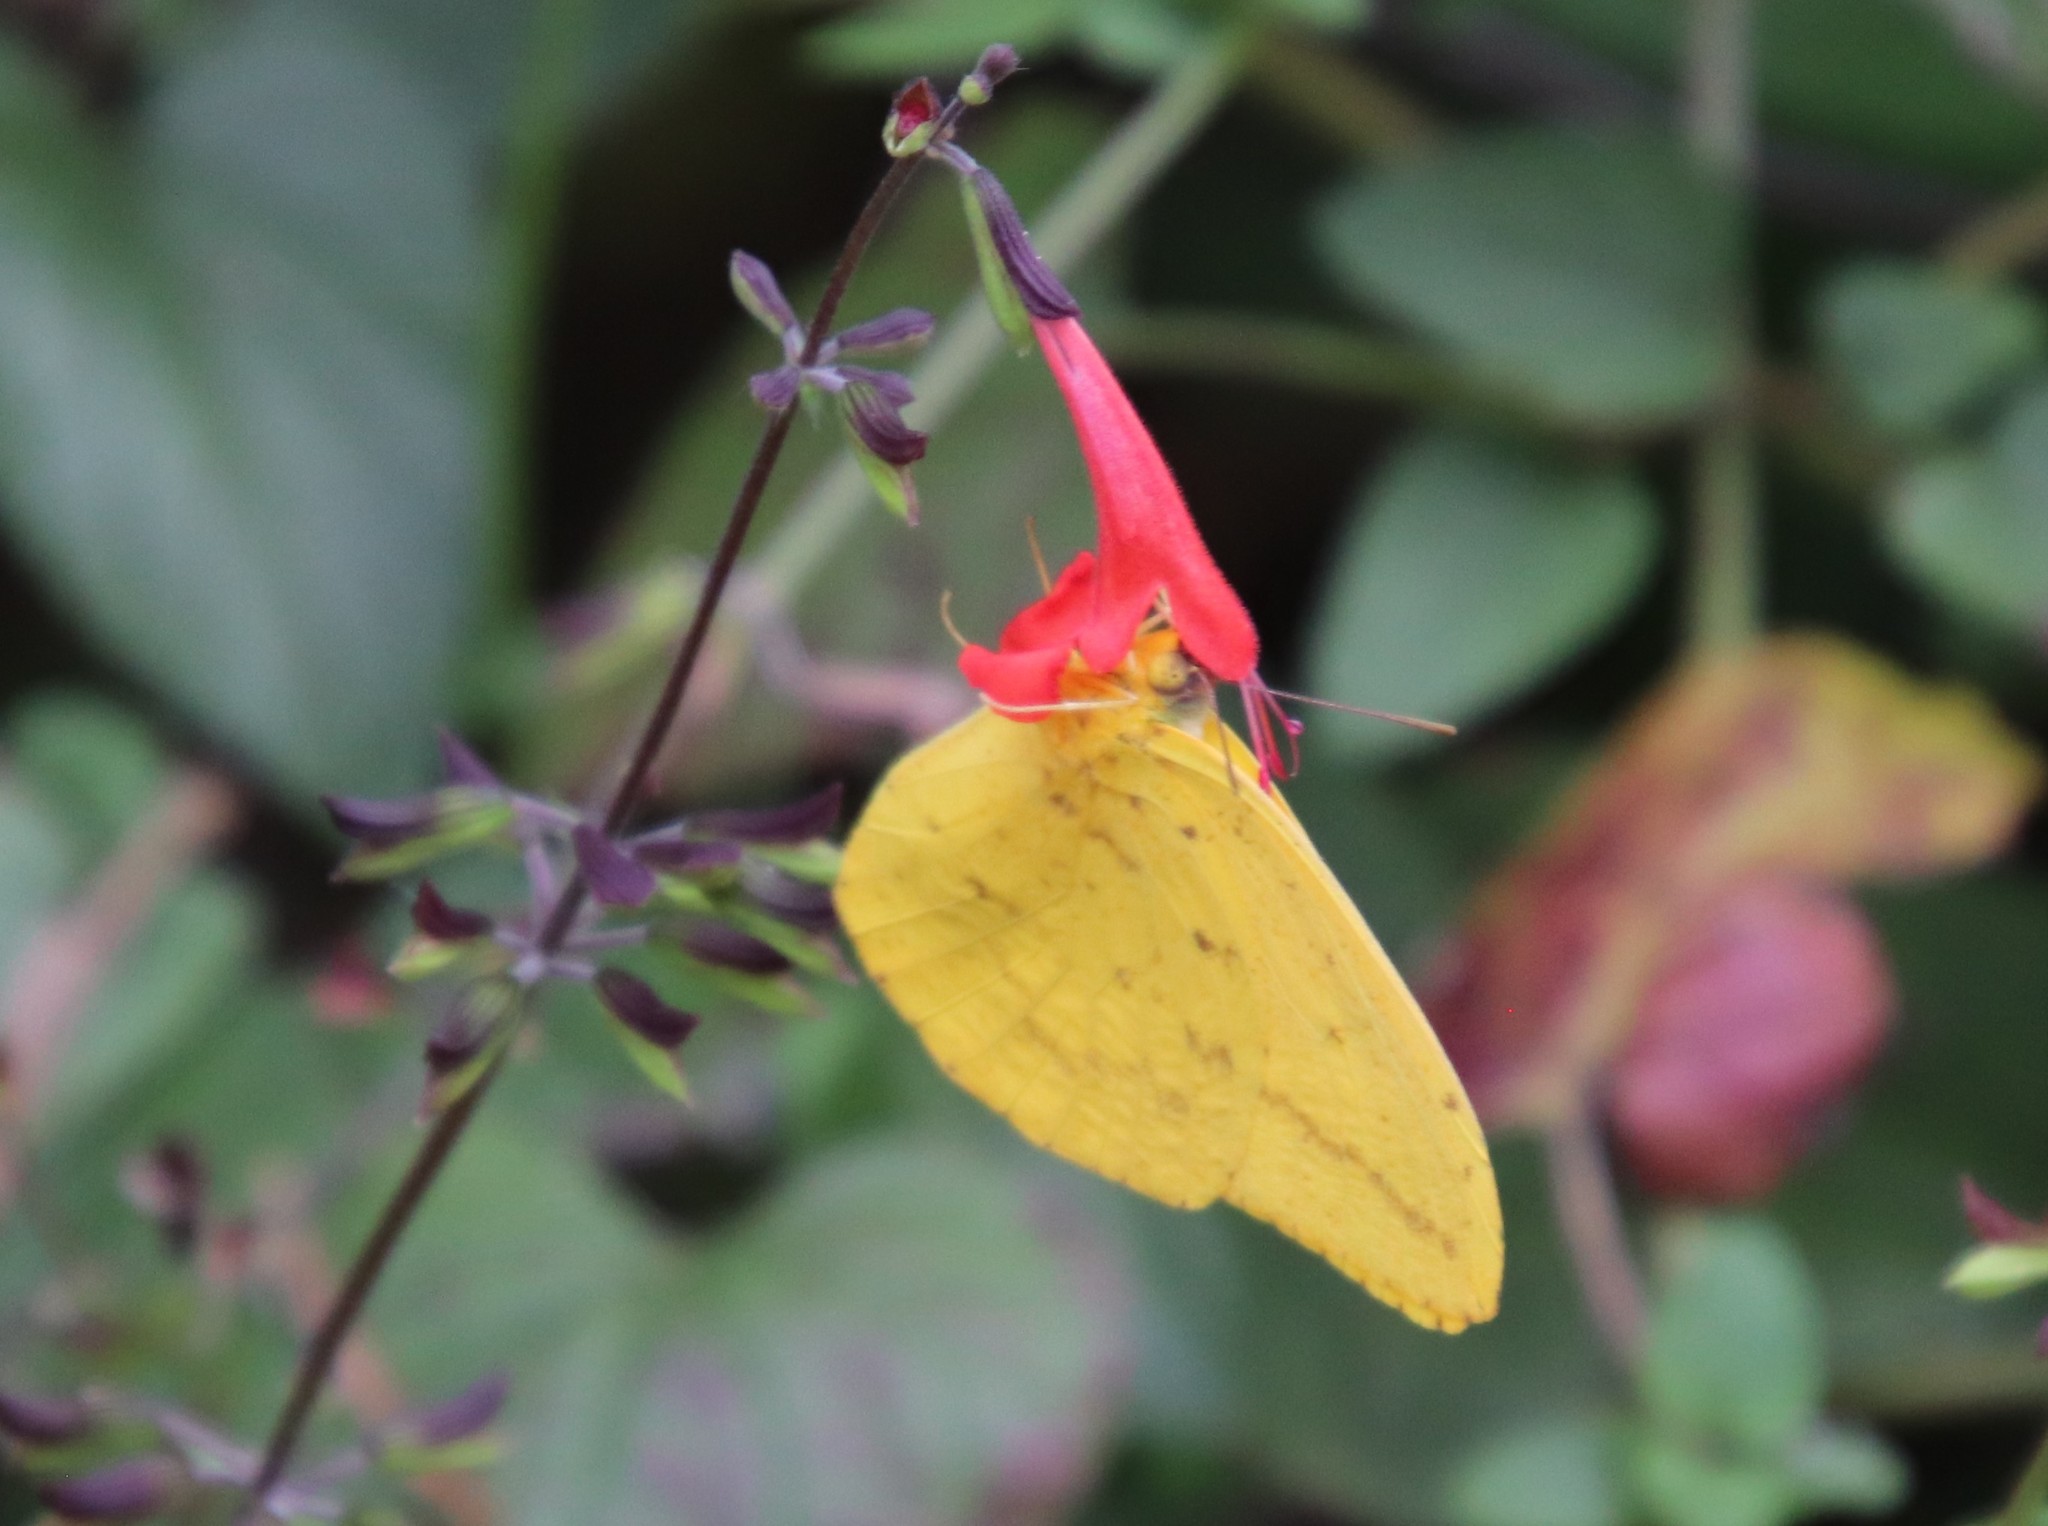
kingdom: Animalia
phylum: Arthropoda
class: Insecta
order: Lepidoptera
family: Pieridae
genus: Phoebis
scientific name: Phoebis agarithe
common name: Large orange sulphur
